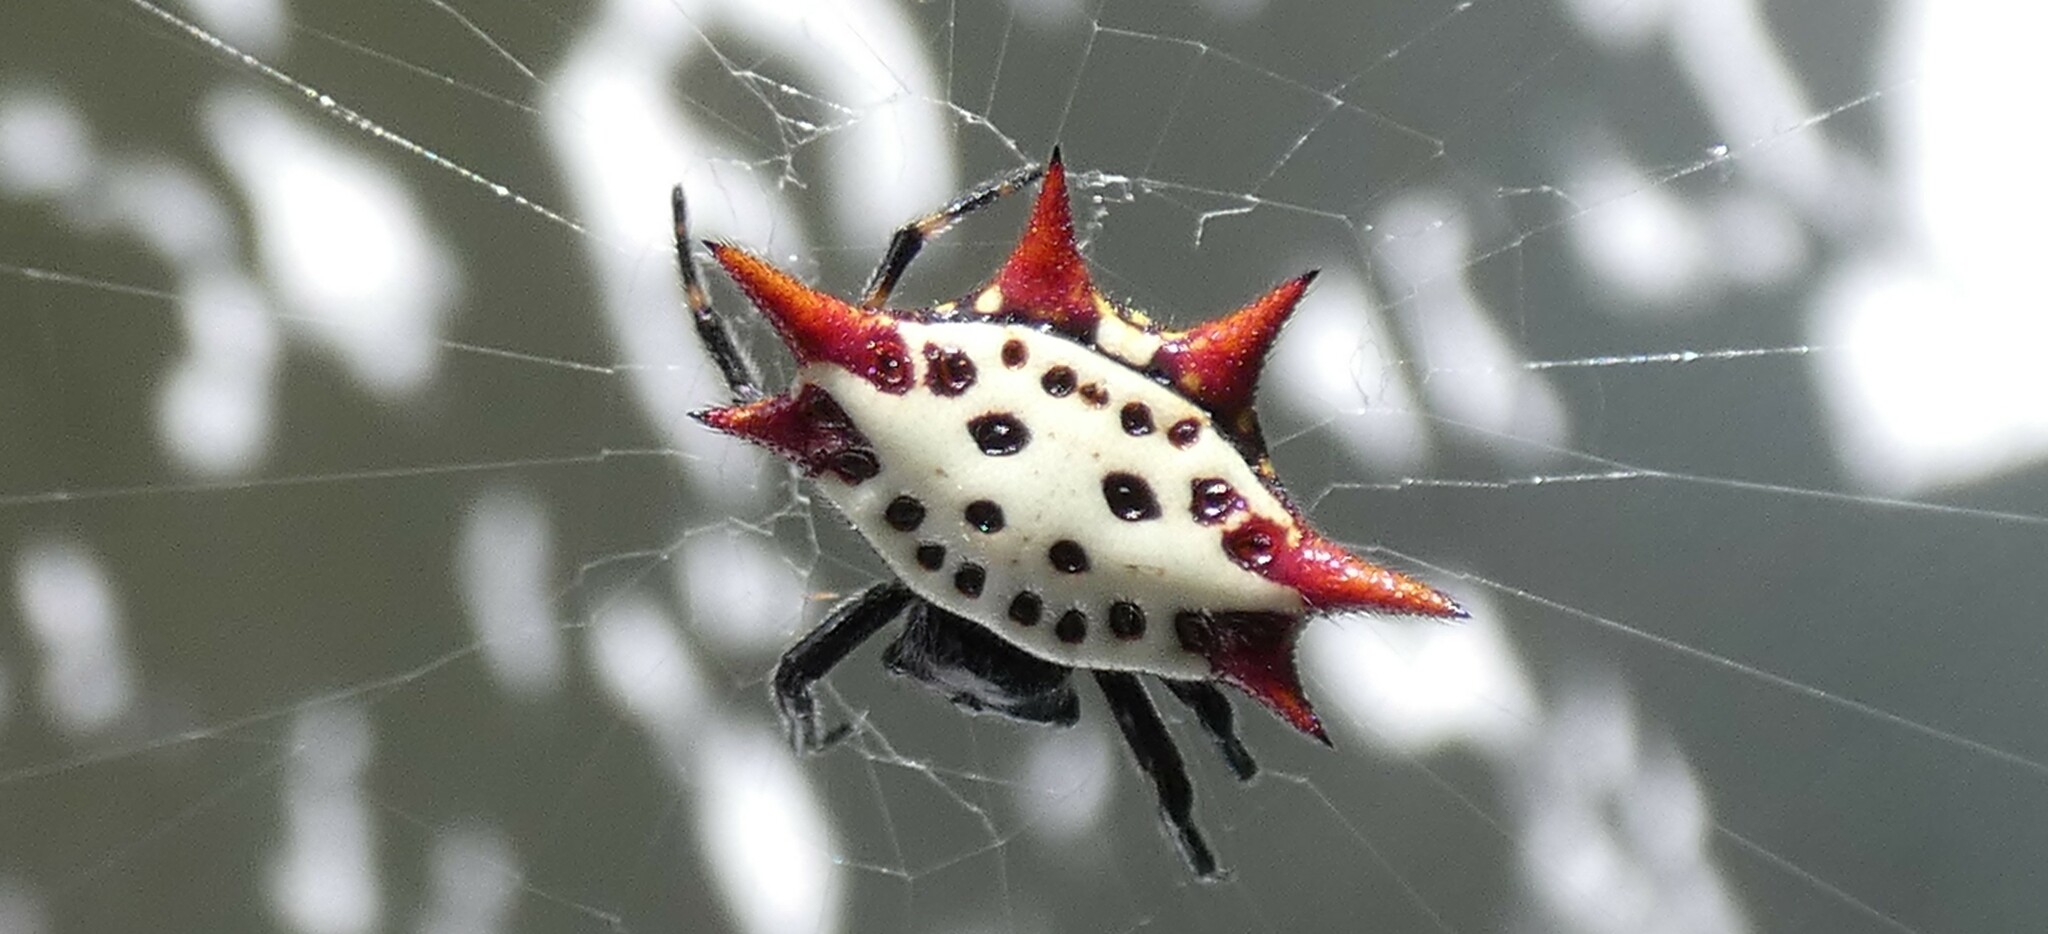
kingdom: Animalia
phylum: Arthropoda
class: Arachnida
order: Araneae
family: Araneidae
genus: Gasteracantha
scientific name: Gasteracantha cancriformis
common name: Orb weavers
